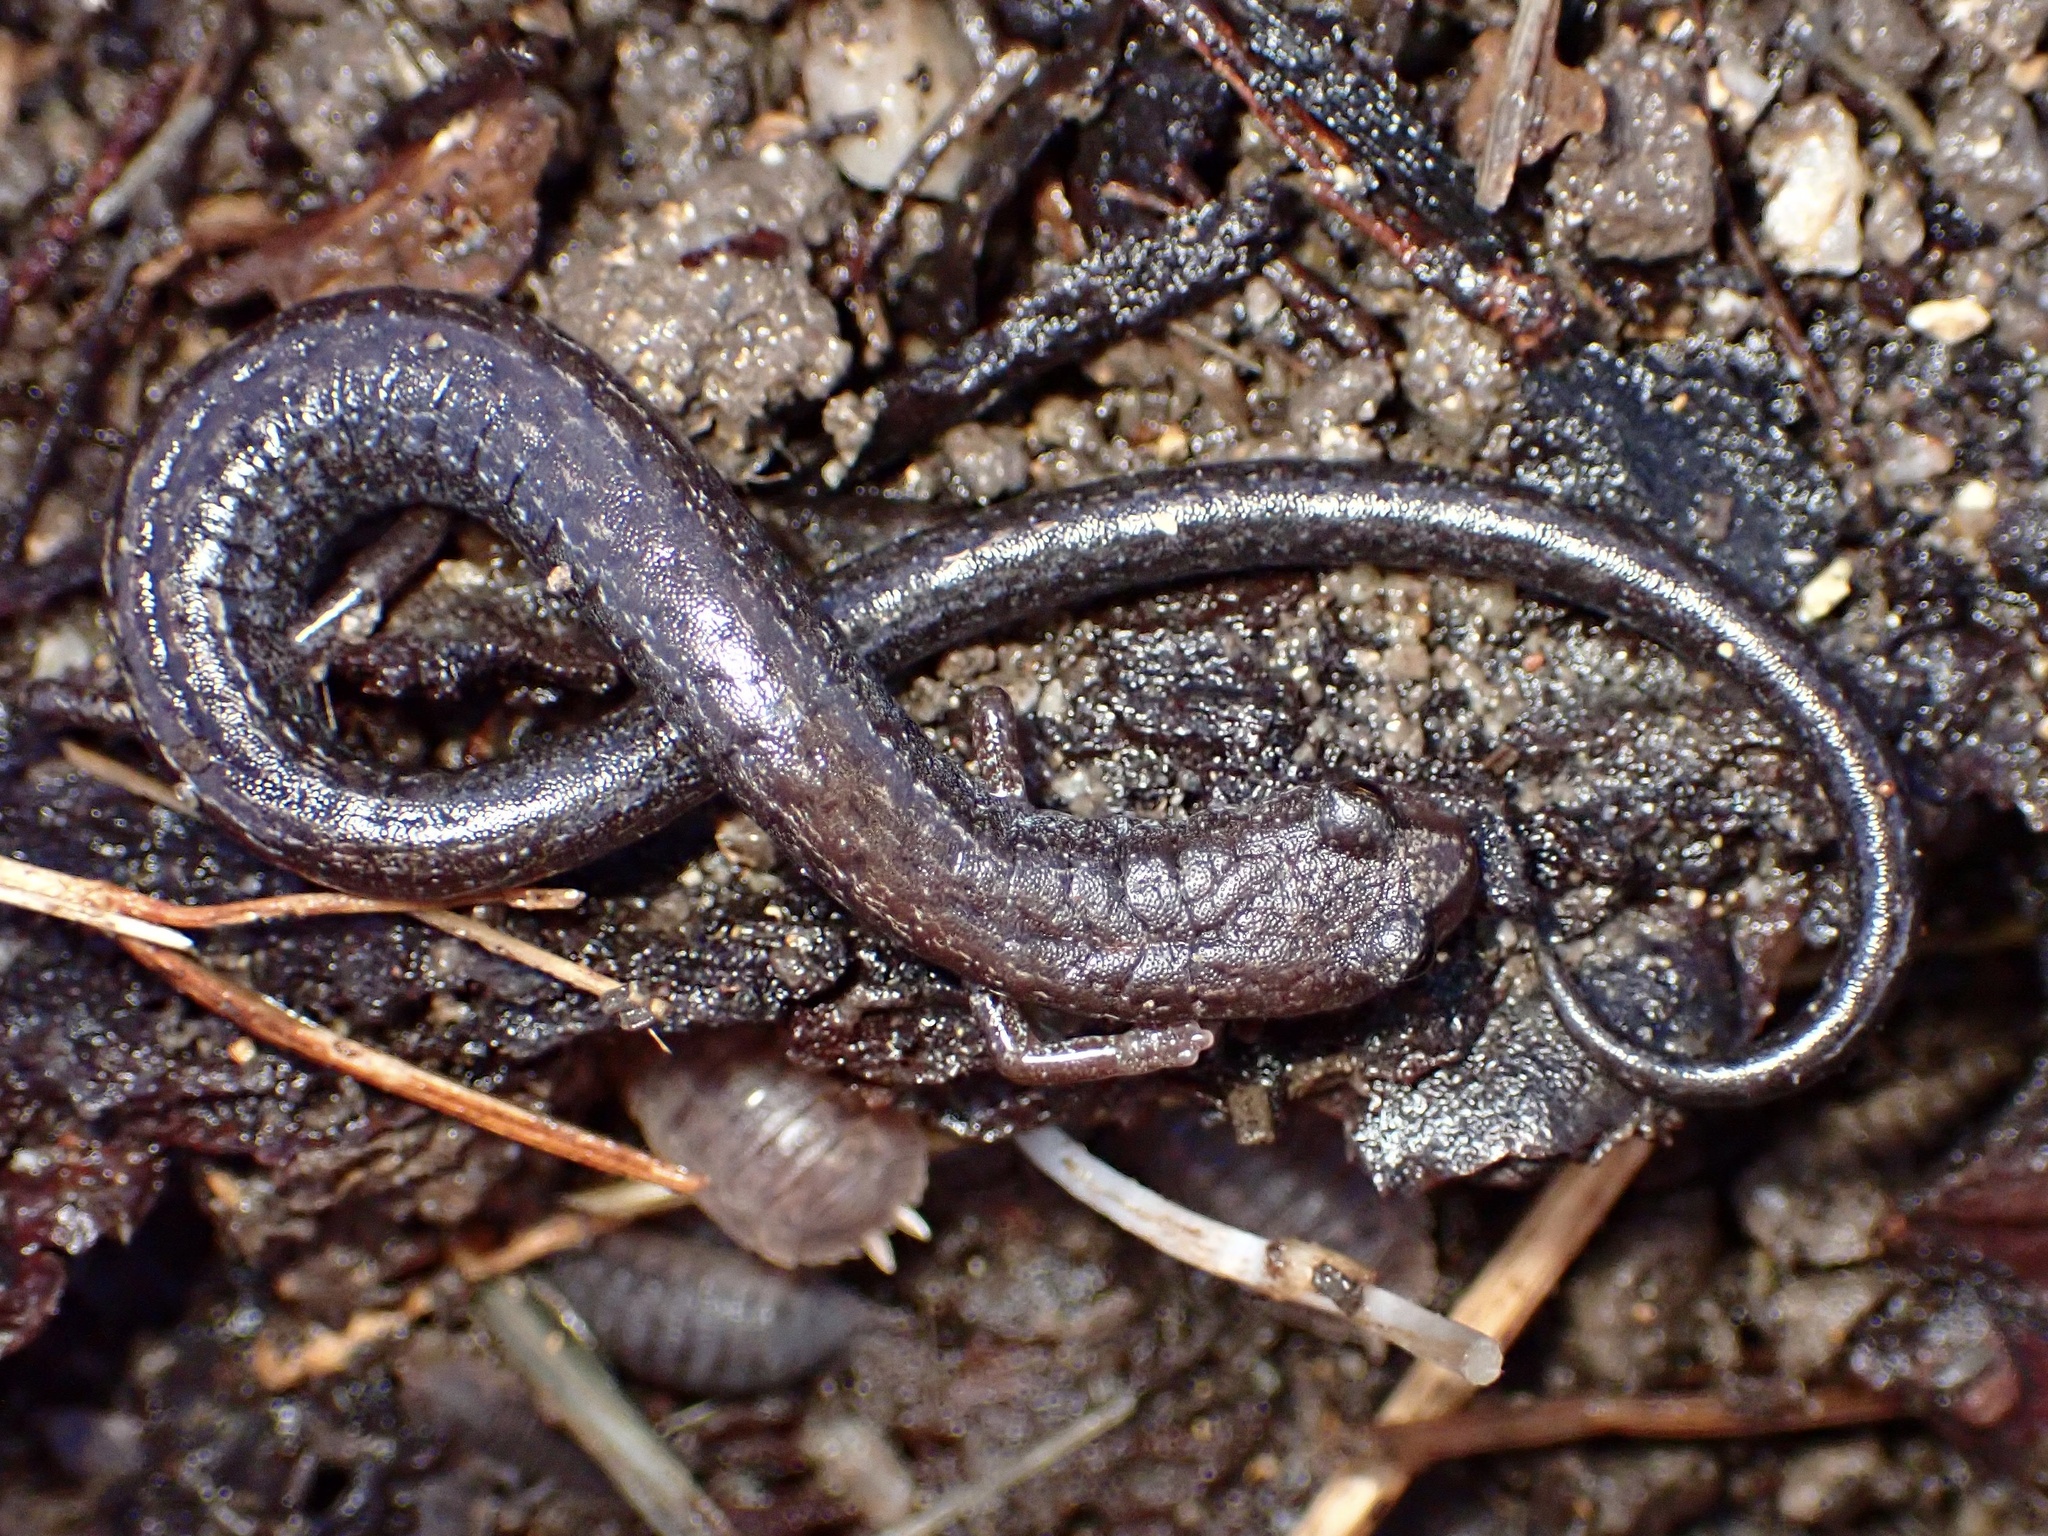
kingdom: Animalia
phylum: Chordata
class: Amphibia
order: Caudata
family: Plethodontidae
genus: Batrachoseps
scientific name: Batrachoseps attenuatus
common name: California slender salamander
